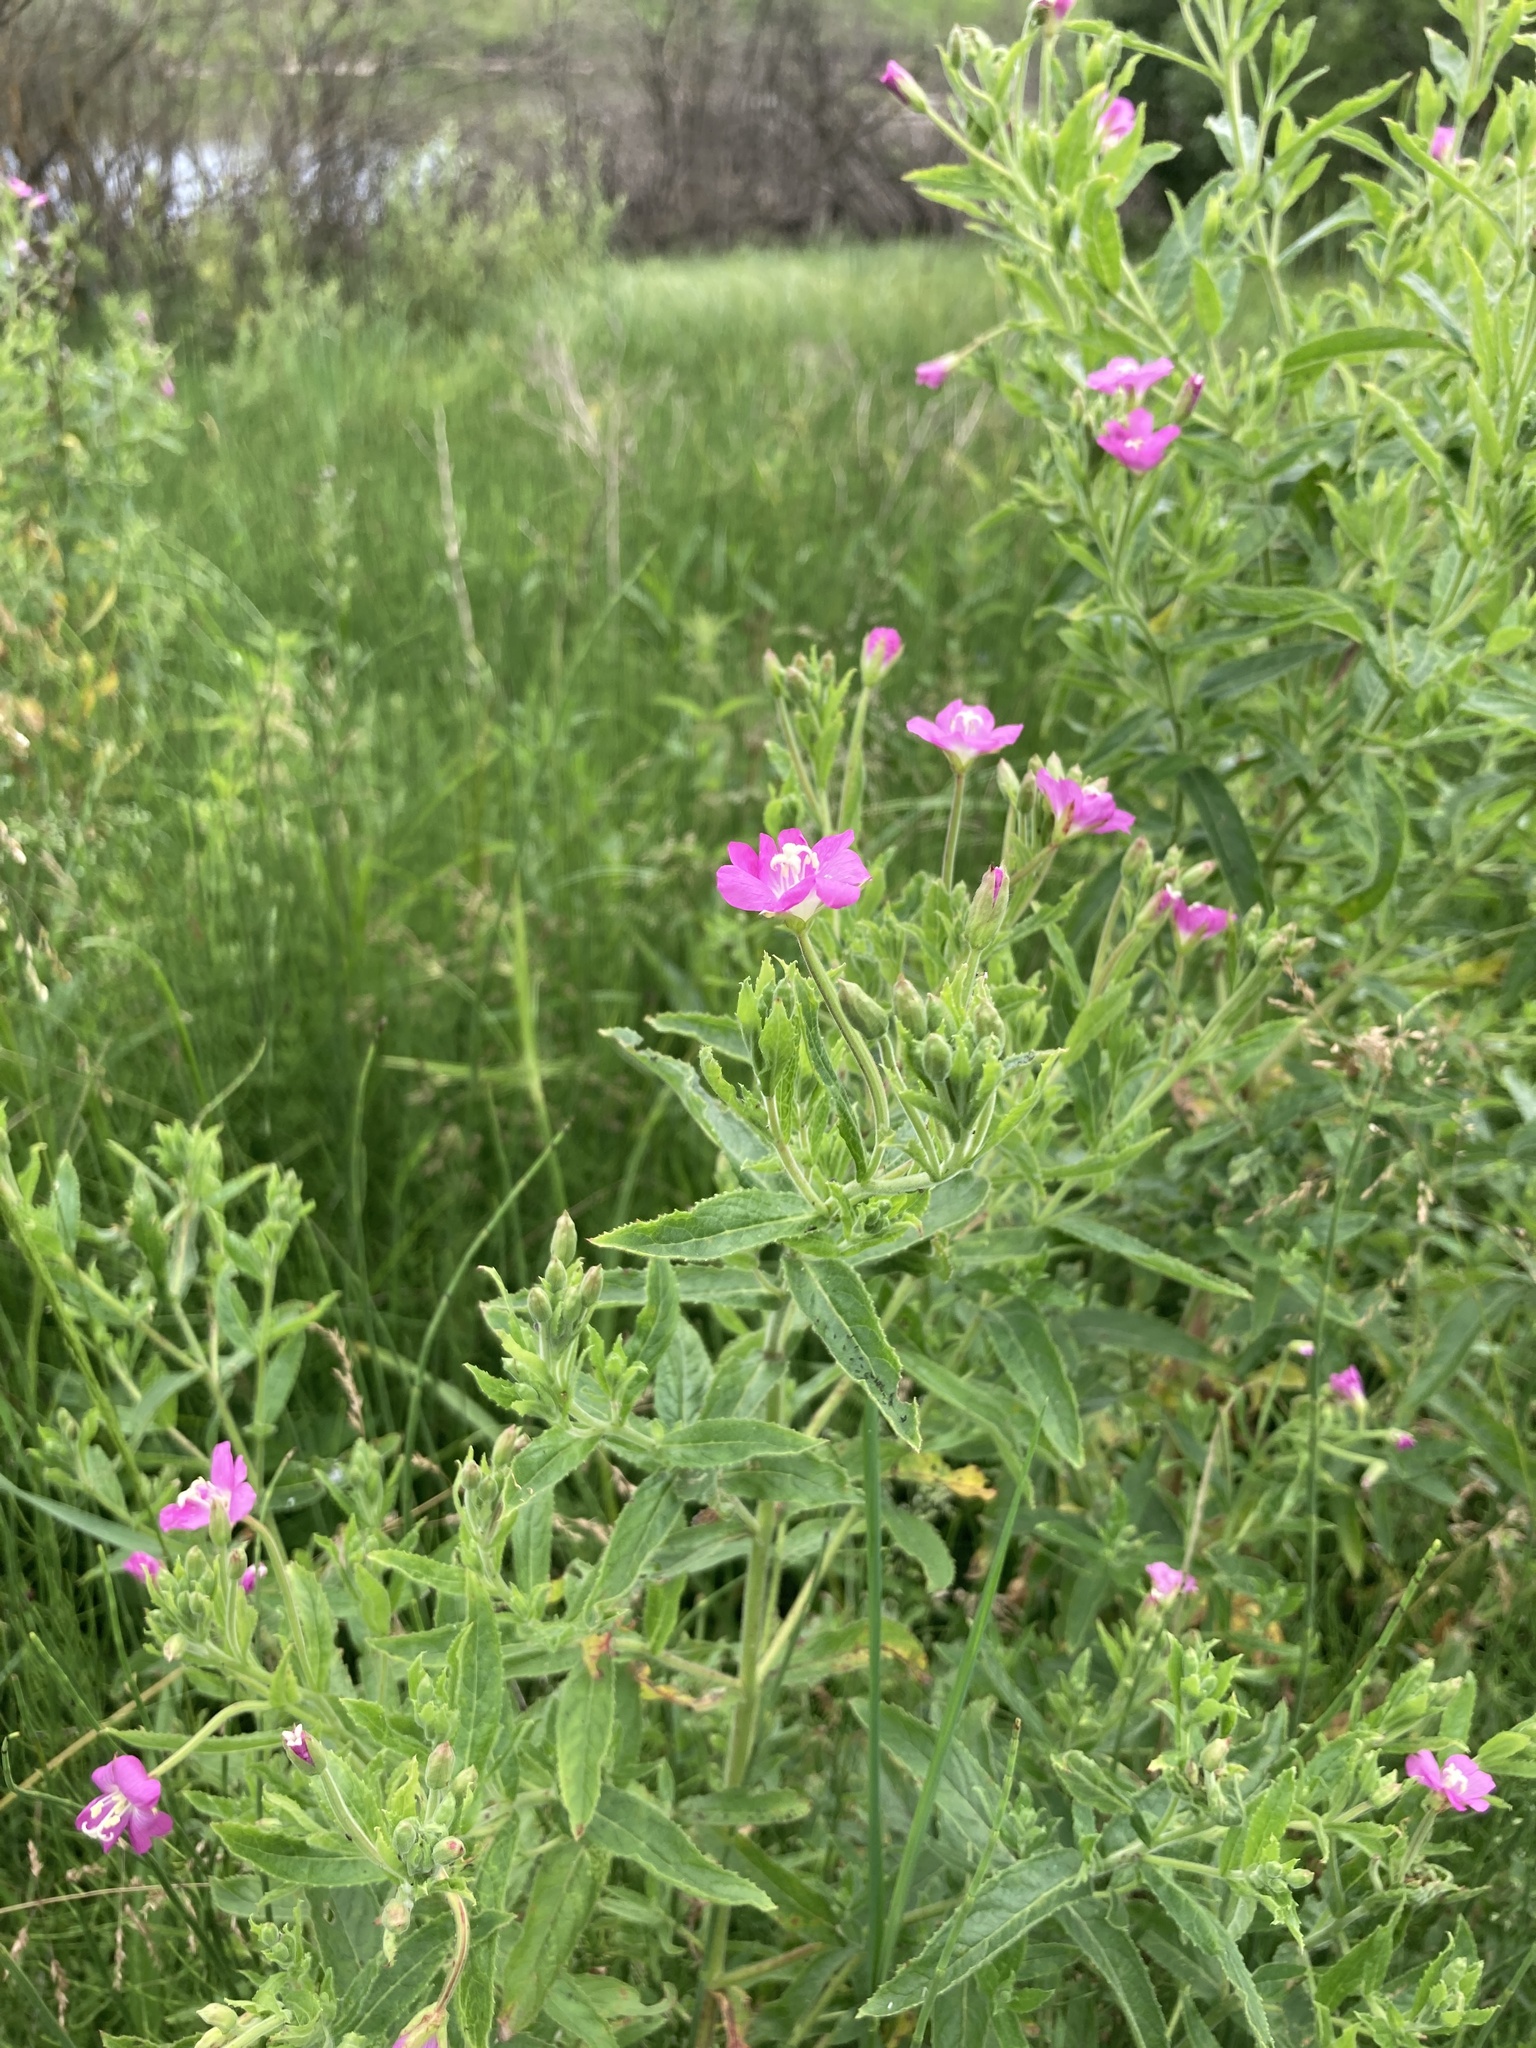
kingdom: Plantae
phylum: Tracheophyta
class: Magnoliopsida
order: Myrtales
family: Onagraceae
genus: Epilobium
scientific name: Epilobium hirsutum
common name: Great willowherb
